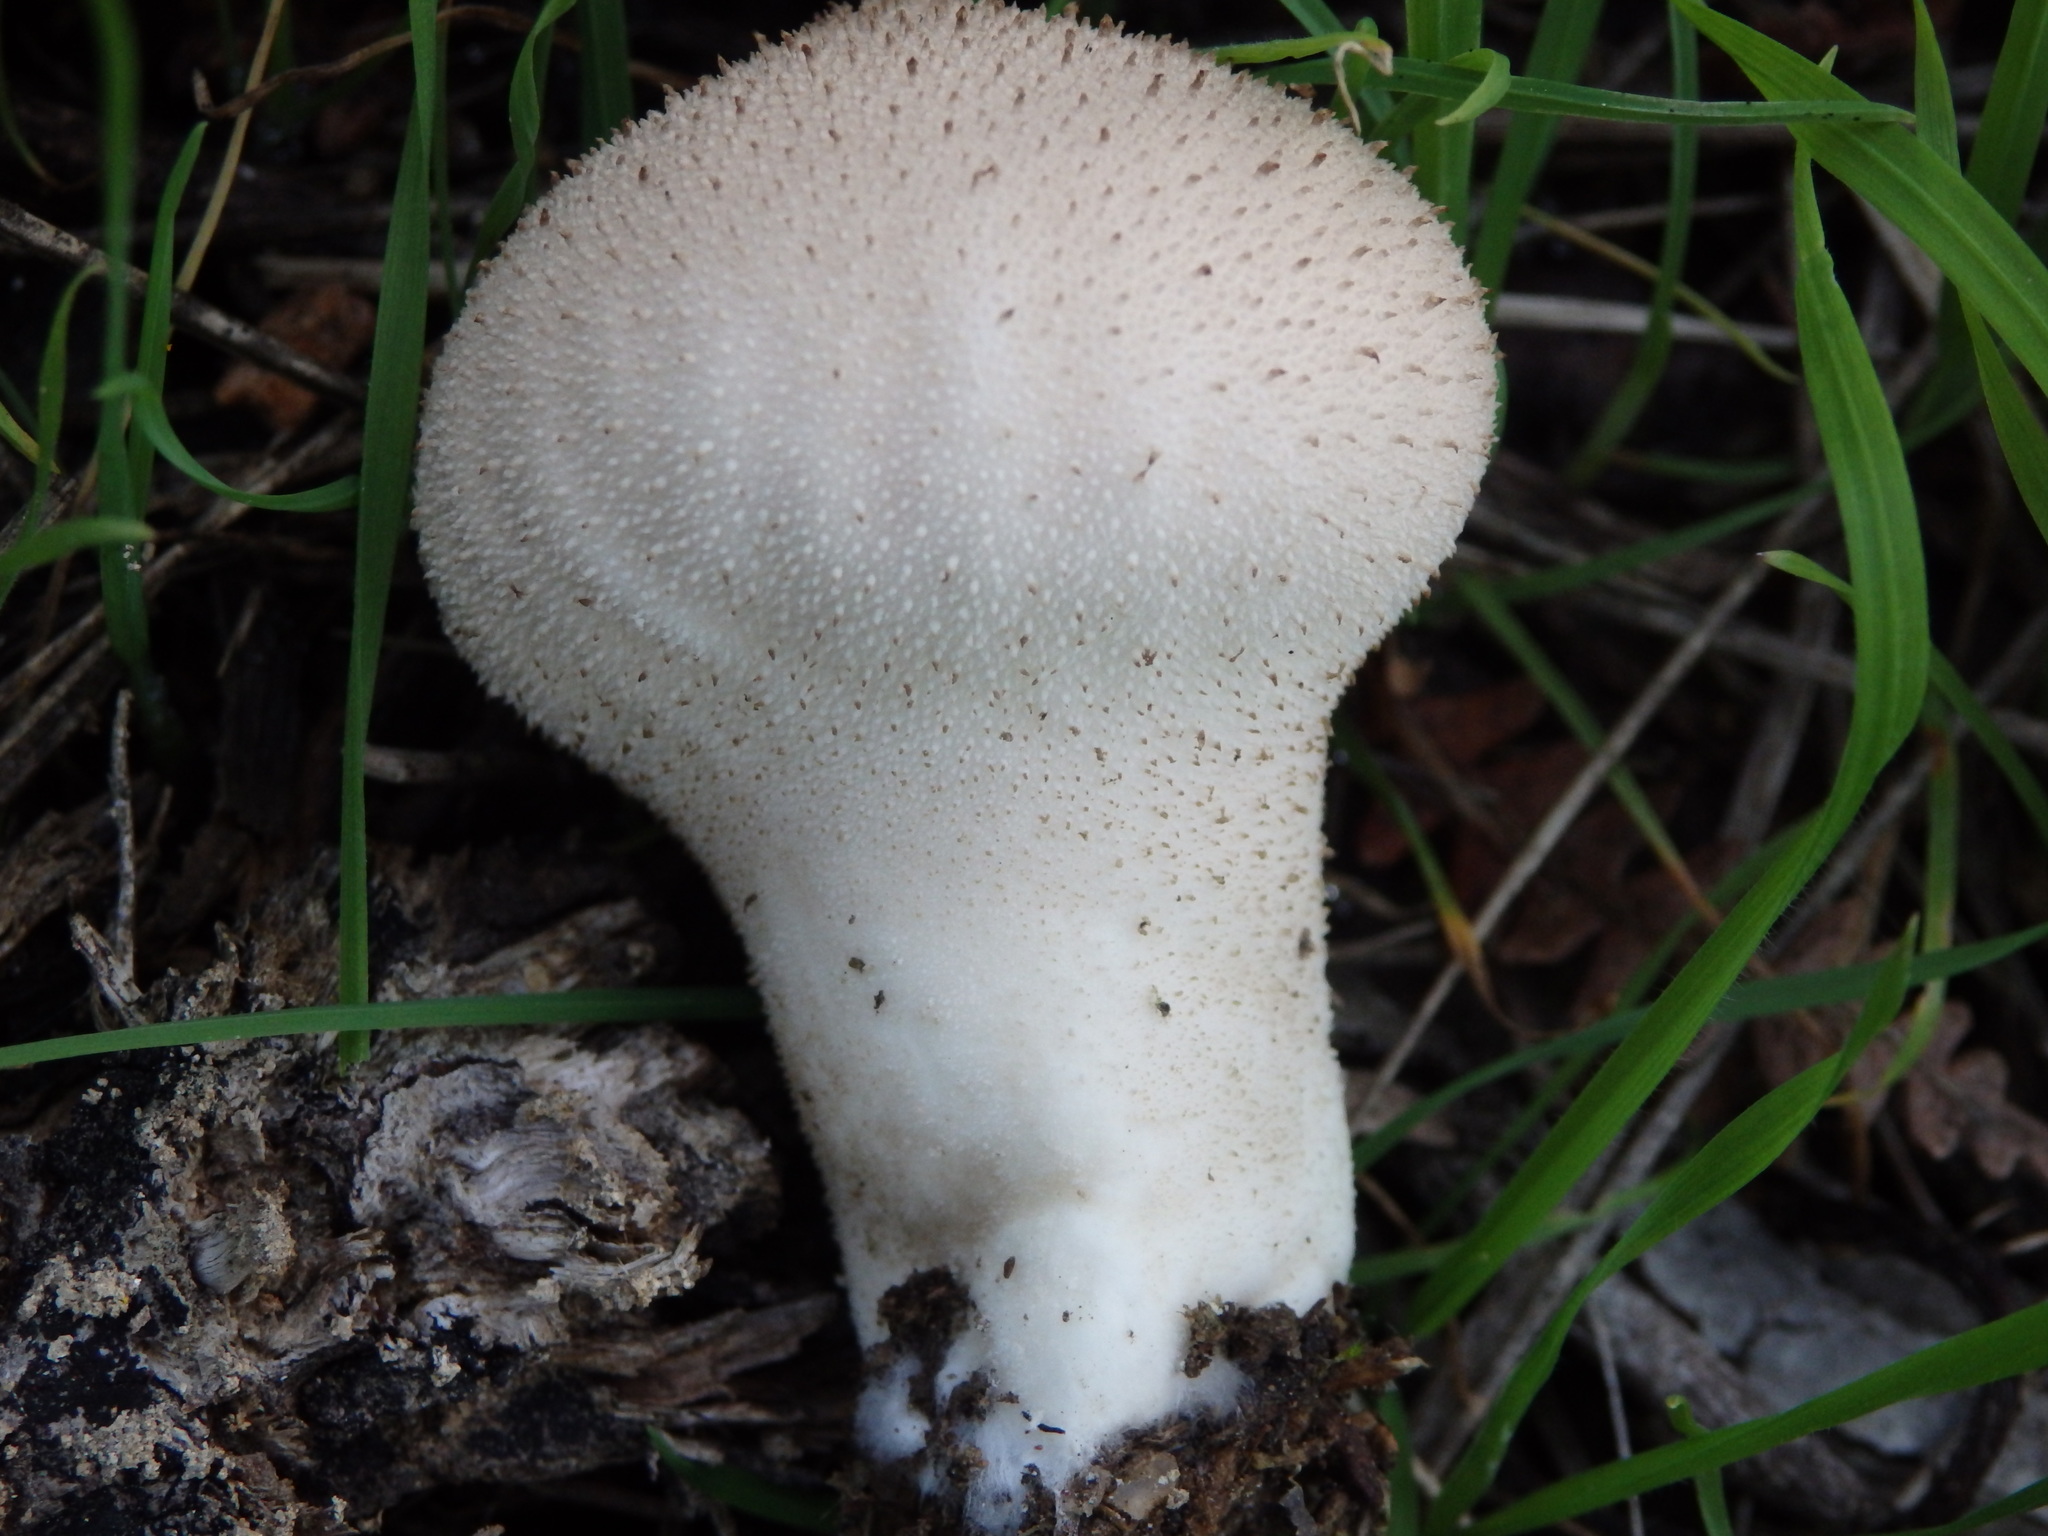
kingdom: Fungi
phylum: Basidiomycota
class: Agaricomycetes
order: Agaricales
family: Lycoperdaceae
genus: Lycoperdon
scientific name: Lycoperdon perlatum
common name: Common puffball
